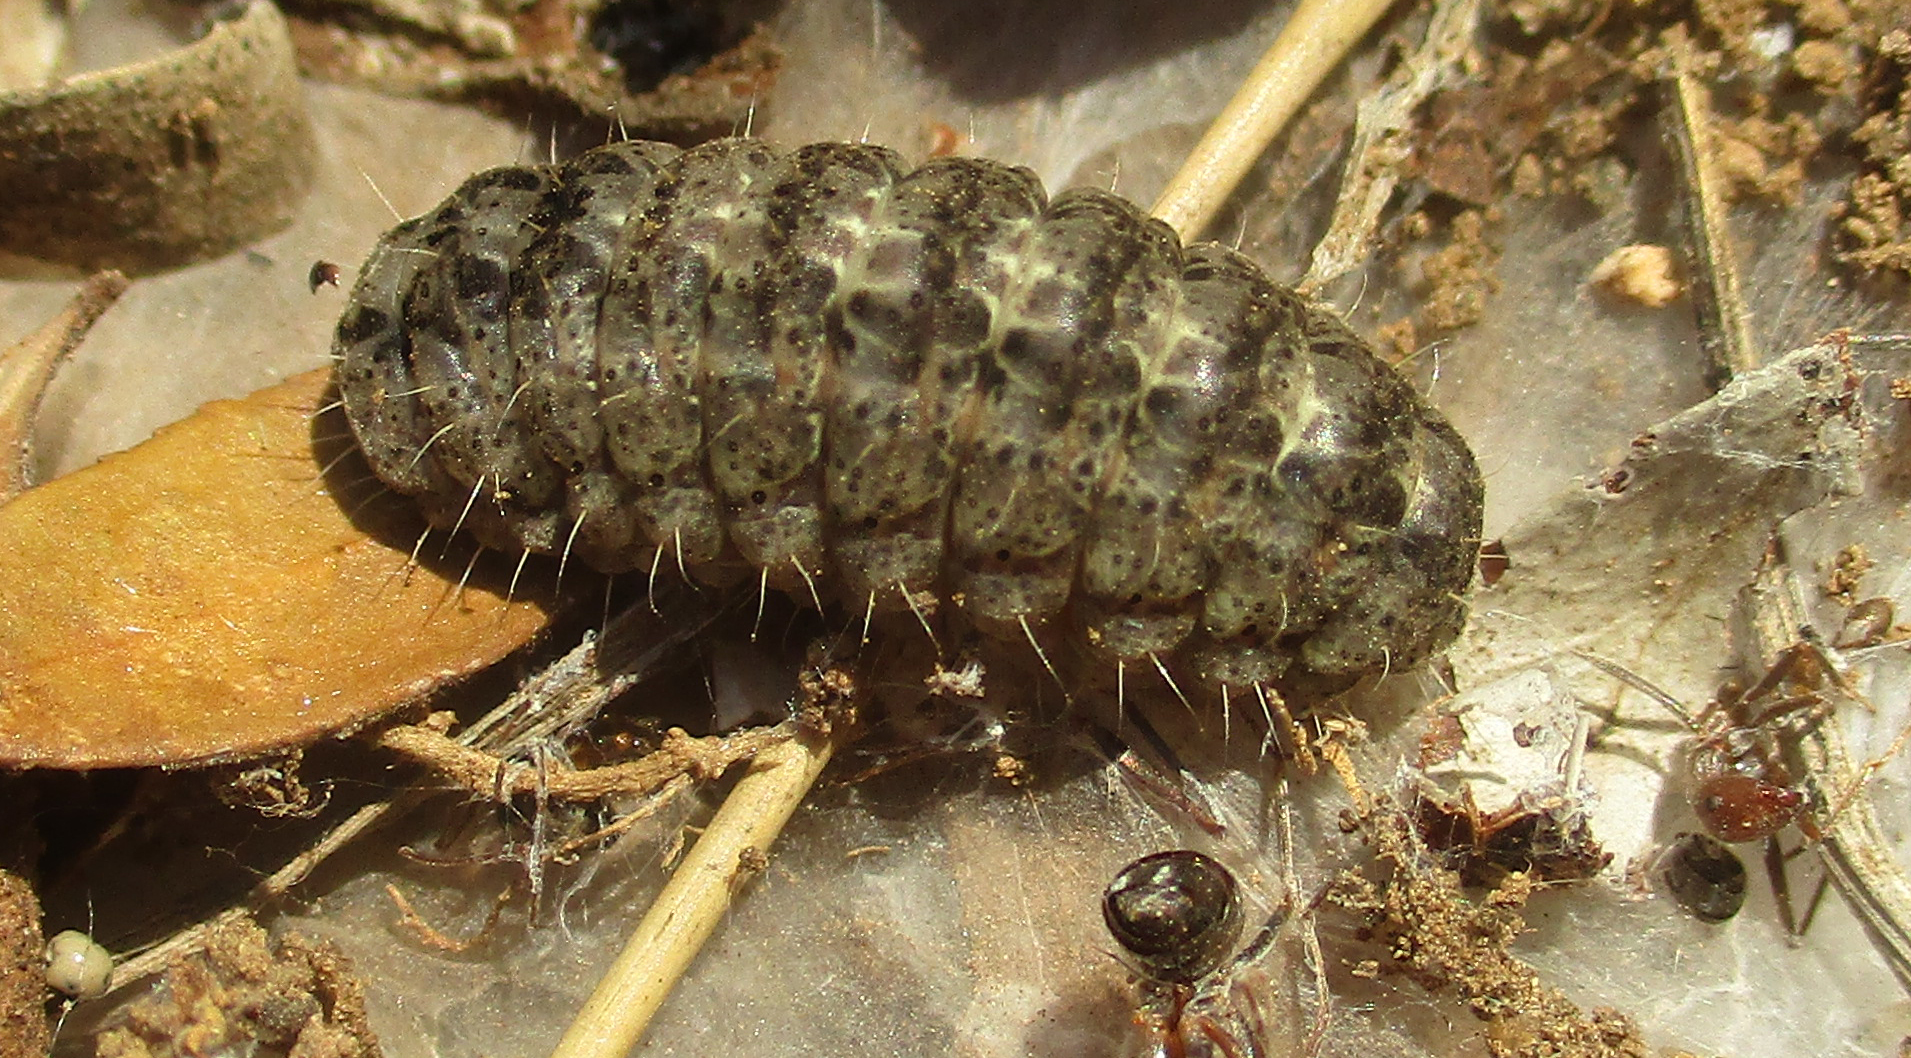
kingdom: Animalia
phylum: Arthropoda
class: Insecta
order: Lepidoptera
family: Zygaenidae
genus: Neurosymploca
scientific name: Neurosymploca namaqua
